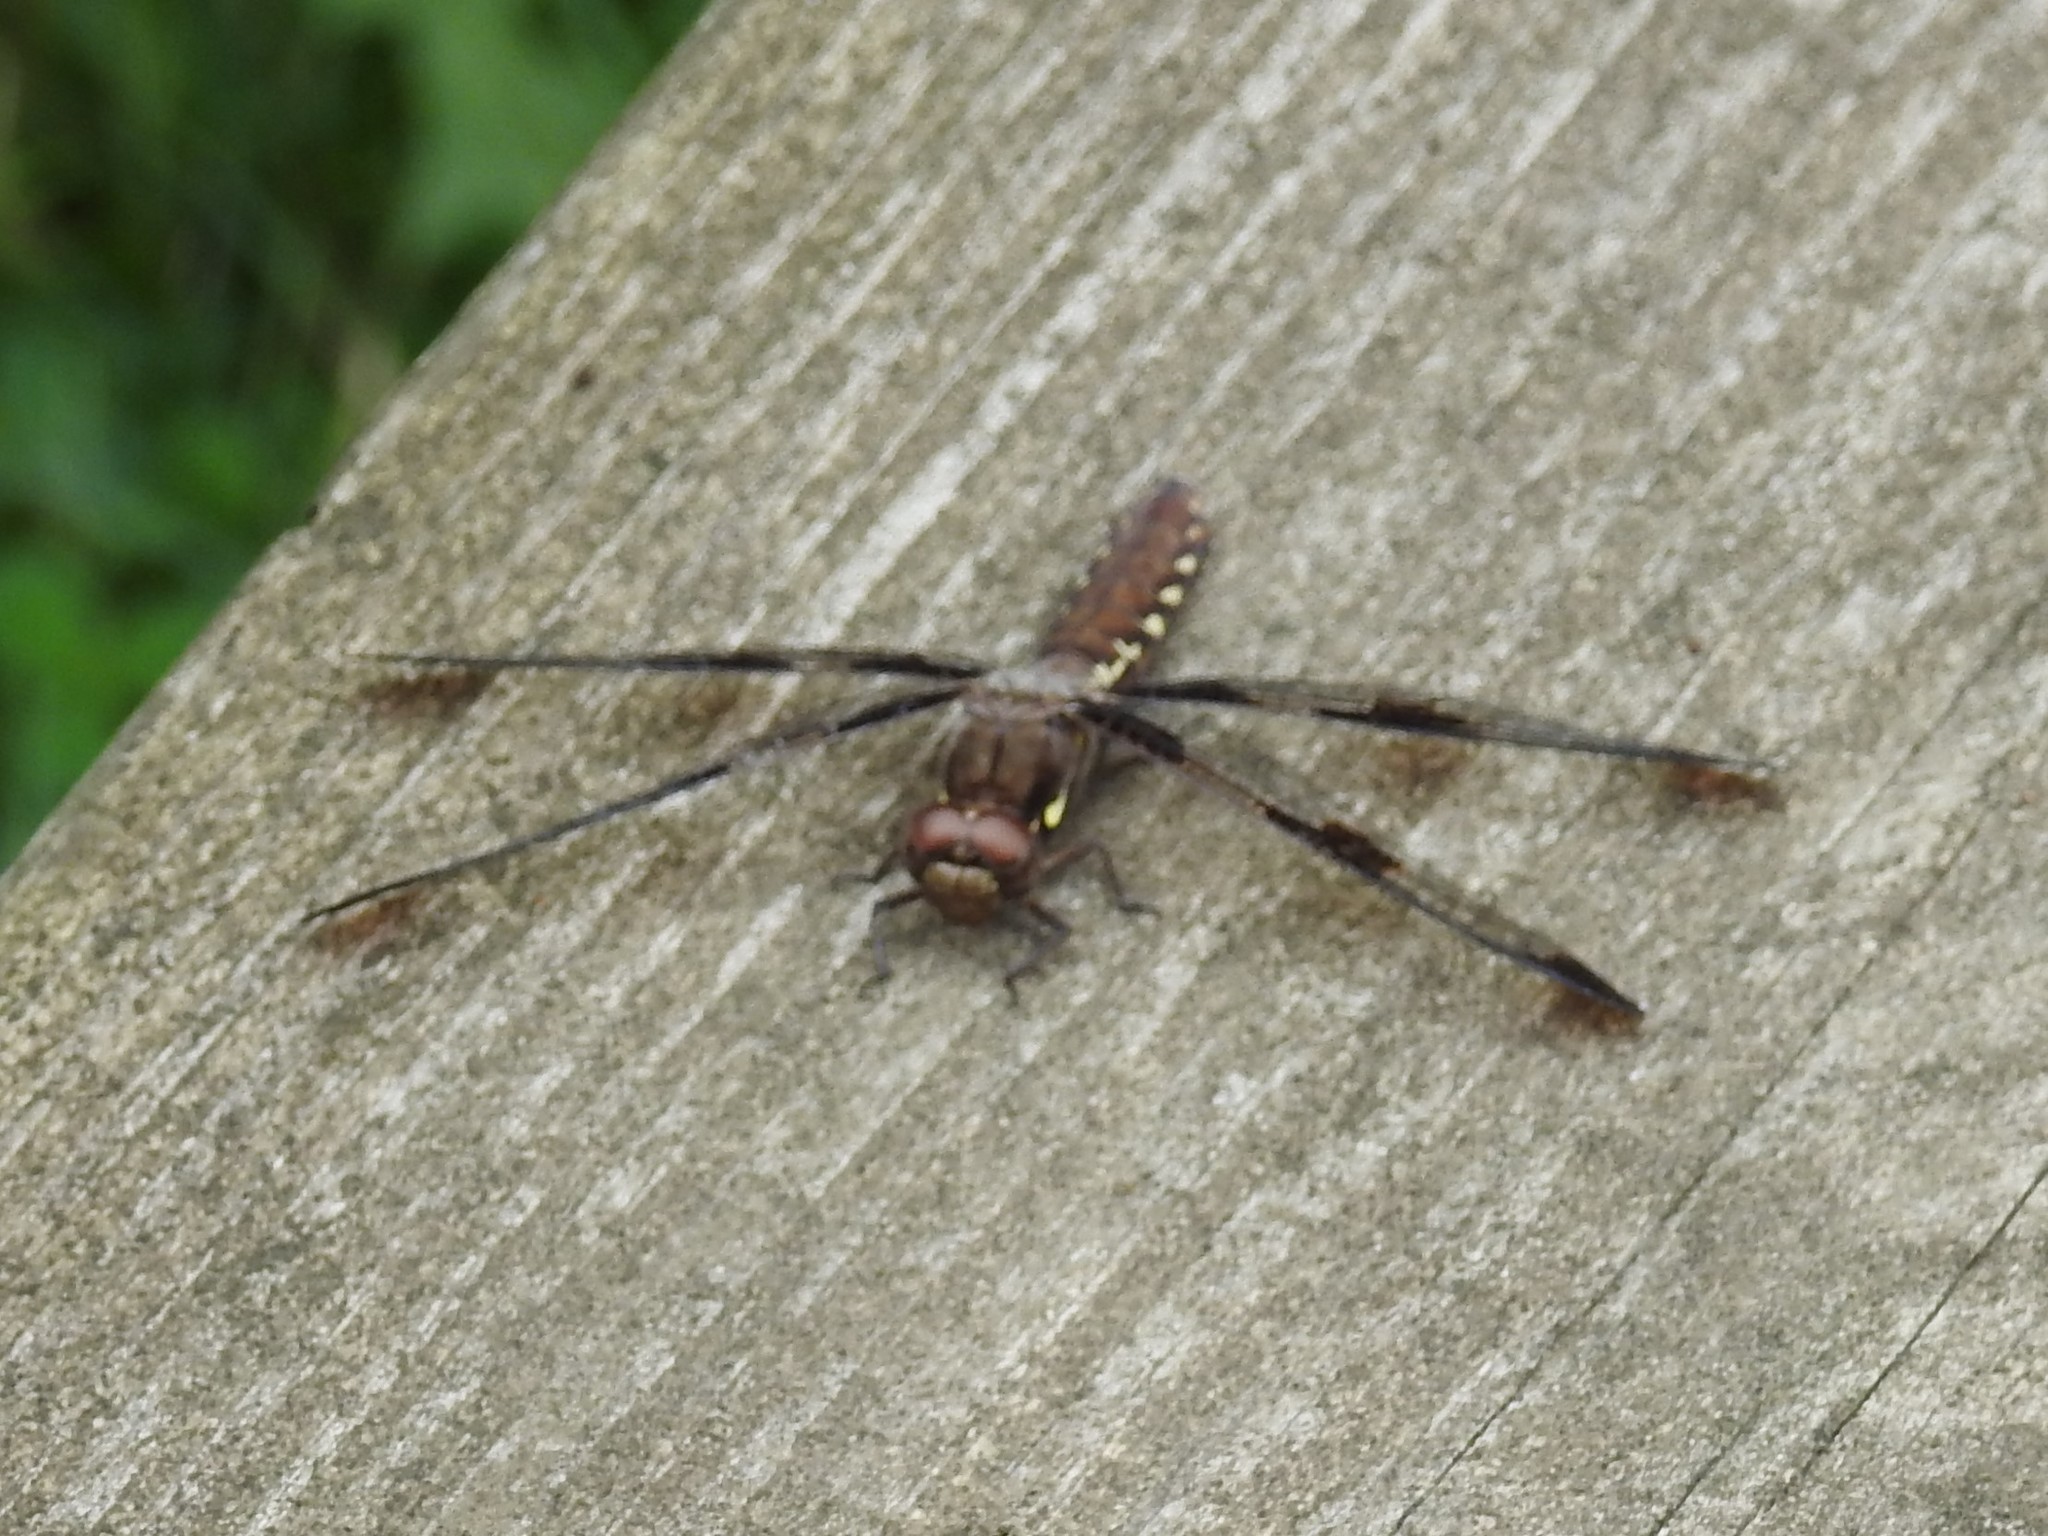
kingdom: Animalia
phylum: Arthropoda
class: Insecta
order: Odonata
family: Libellulidae
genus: Plathemis
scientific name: Plathemis lydia
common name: Common whitetail
